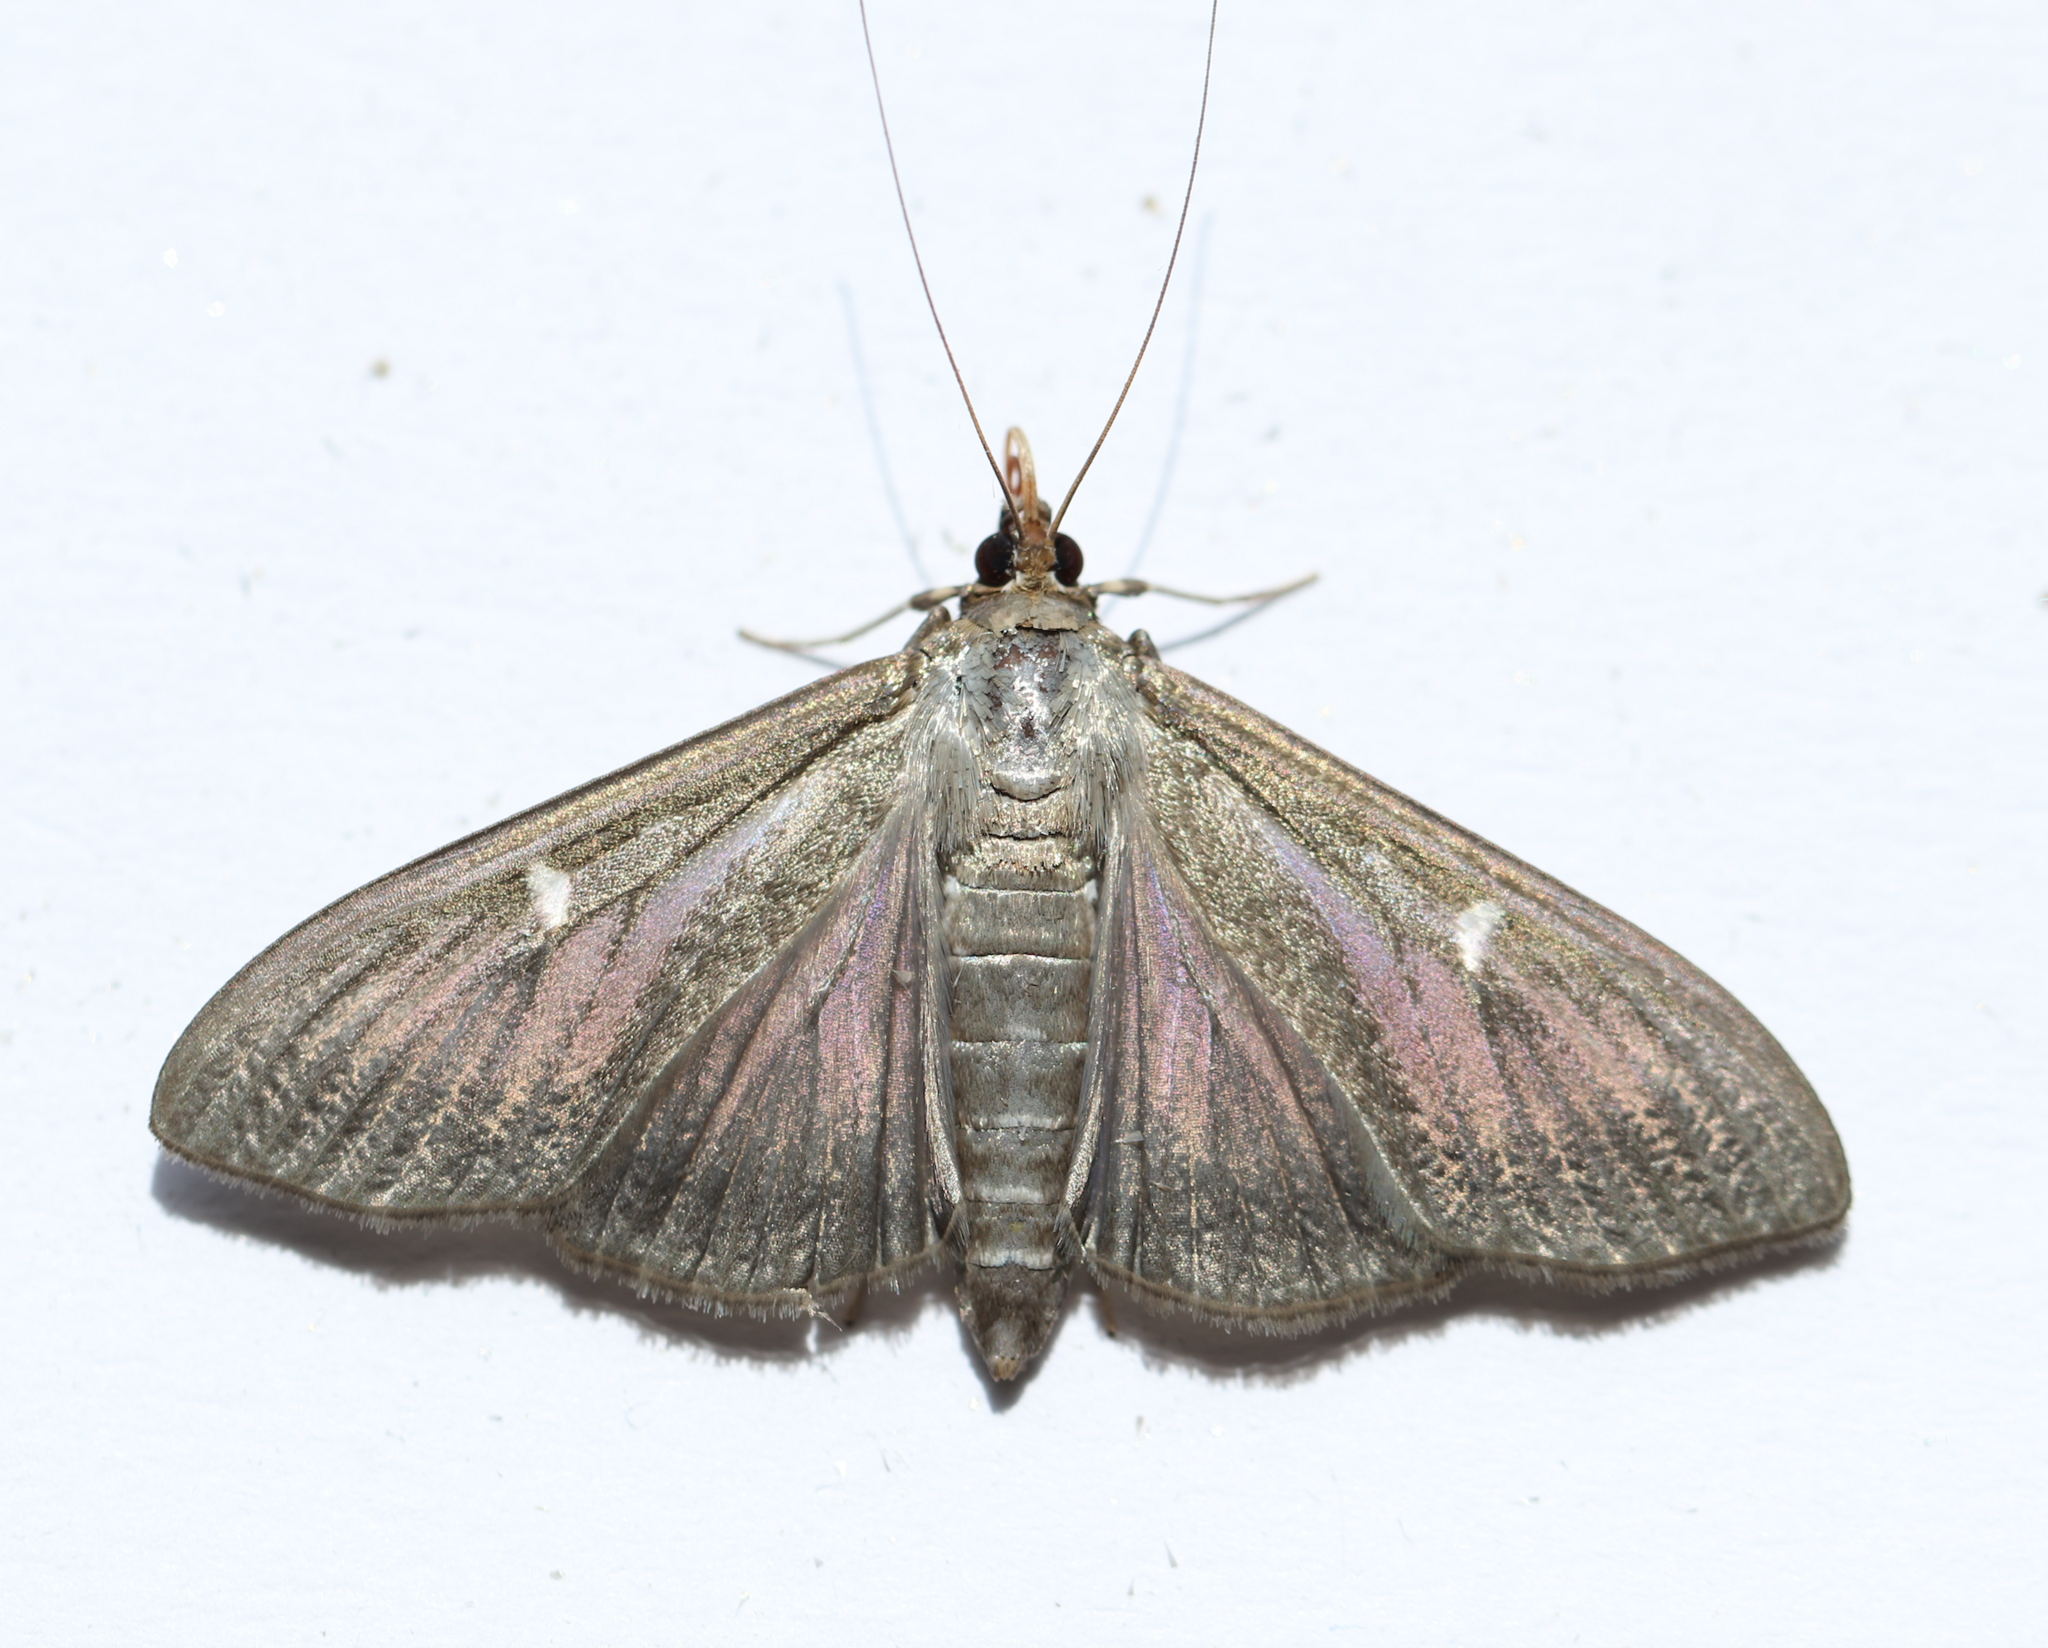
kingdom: Animalia
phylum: Arthropoda
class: Insecta
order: Lepidoptera
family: Crambidae
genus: Cydalima
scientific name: Cydalima perspectalis
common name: Box tree moth
